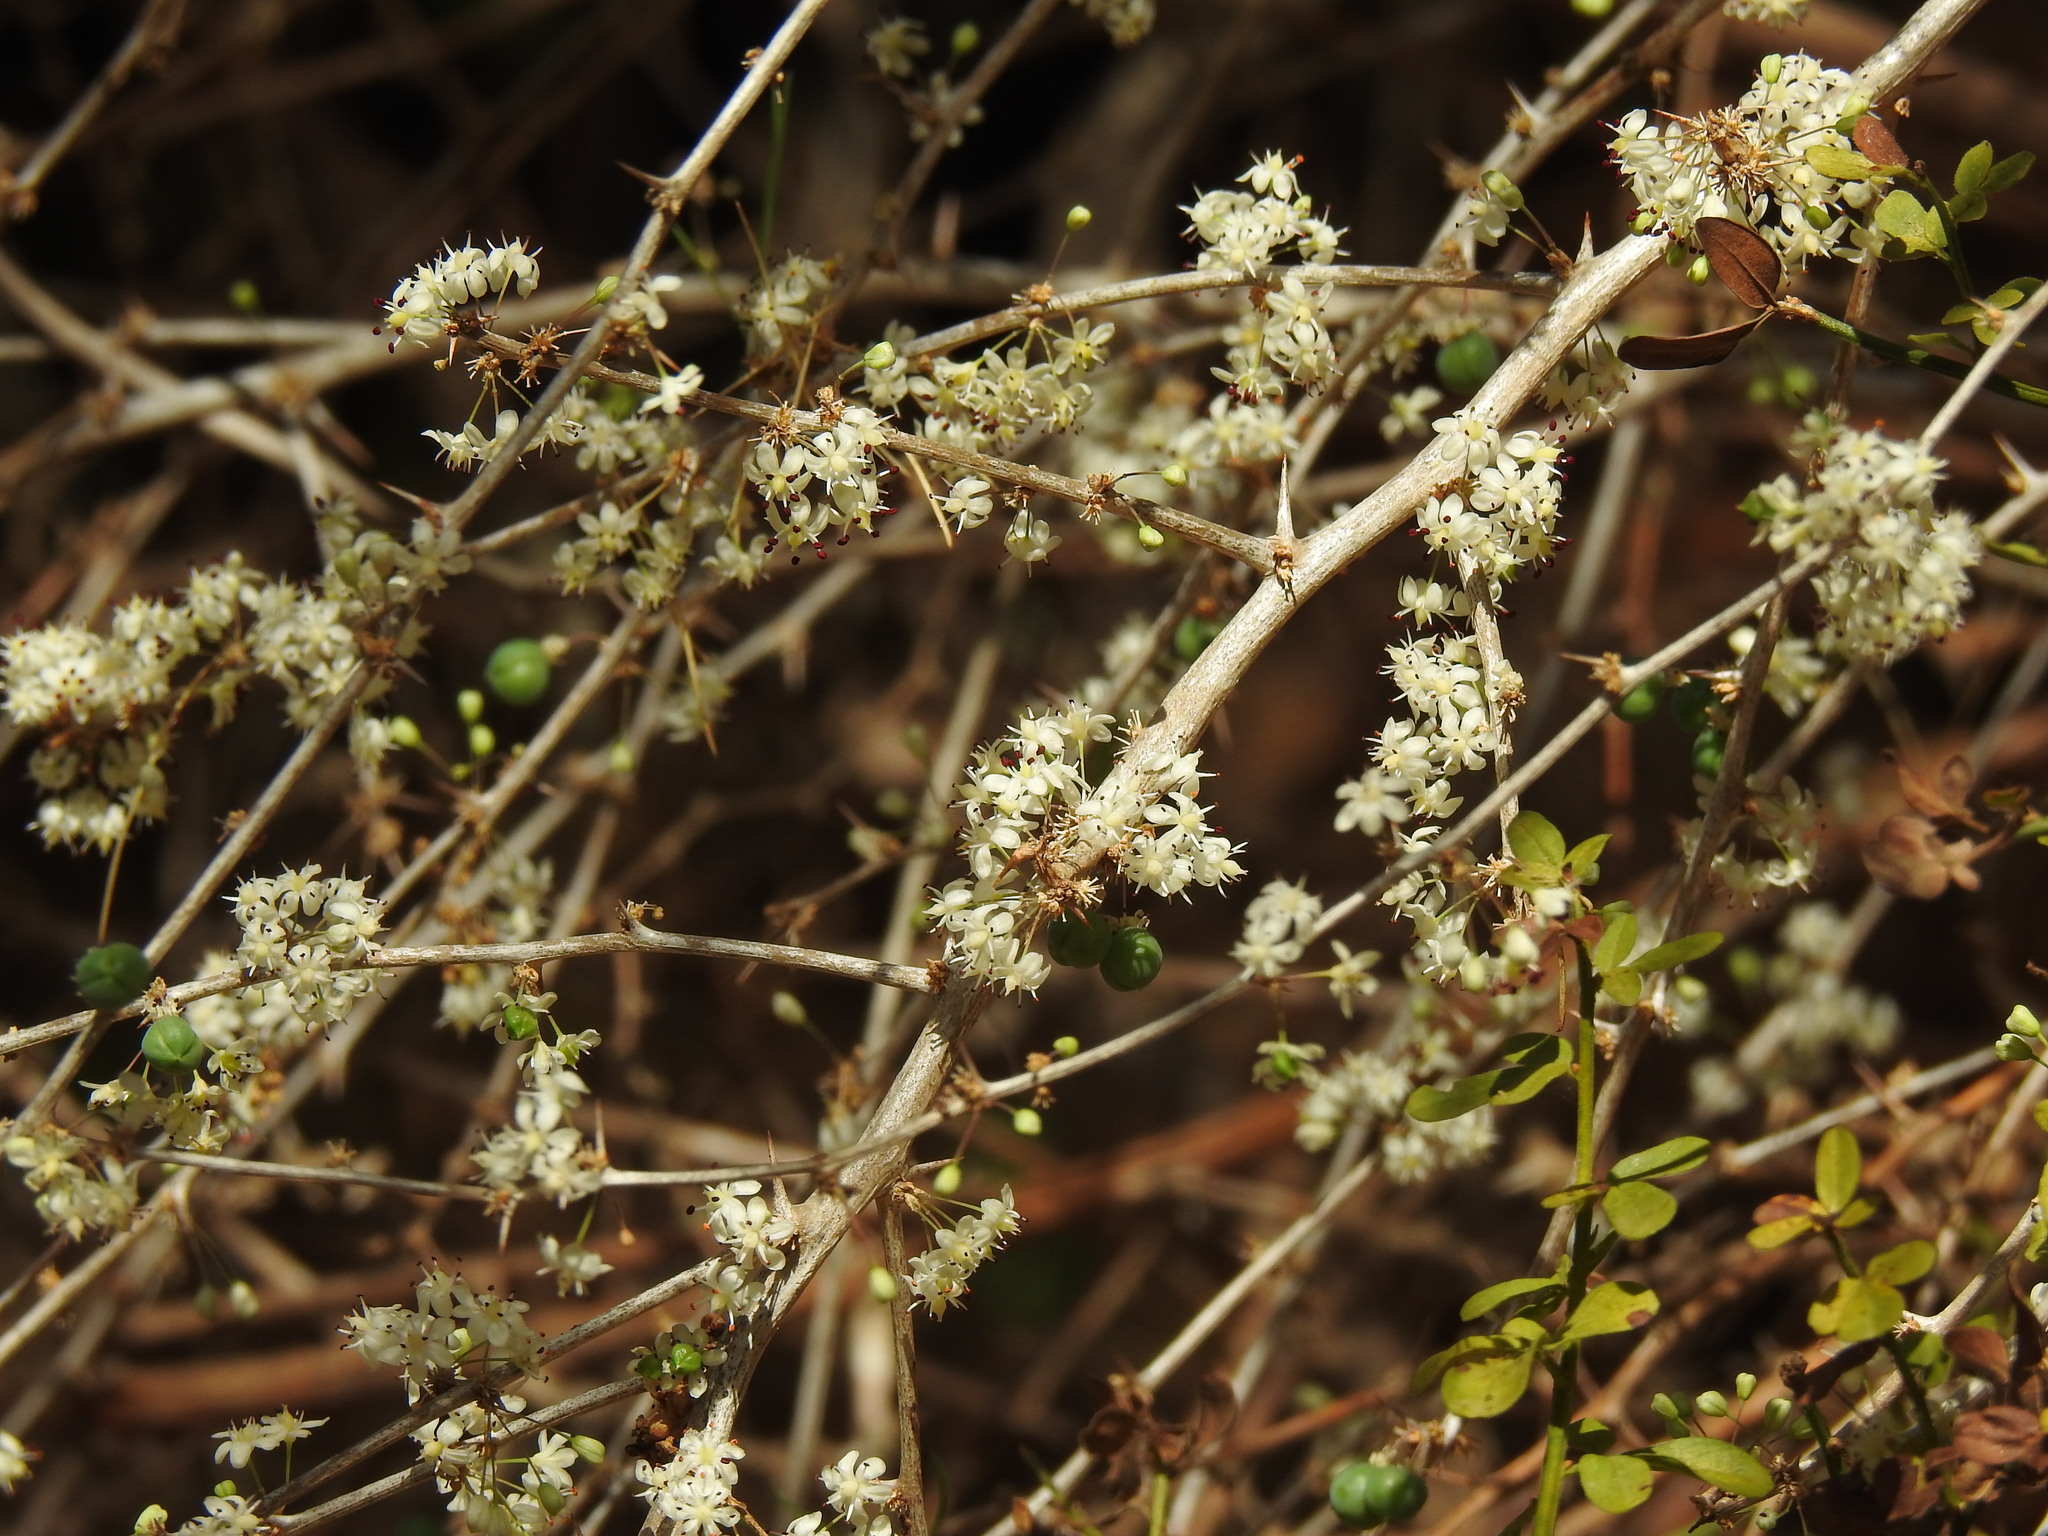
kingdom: Plantae
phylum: Tracheophyta
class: Liliopsida
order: Asparagales
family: Asparagaceae
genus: Asparagus
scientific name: Asparagus albus
